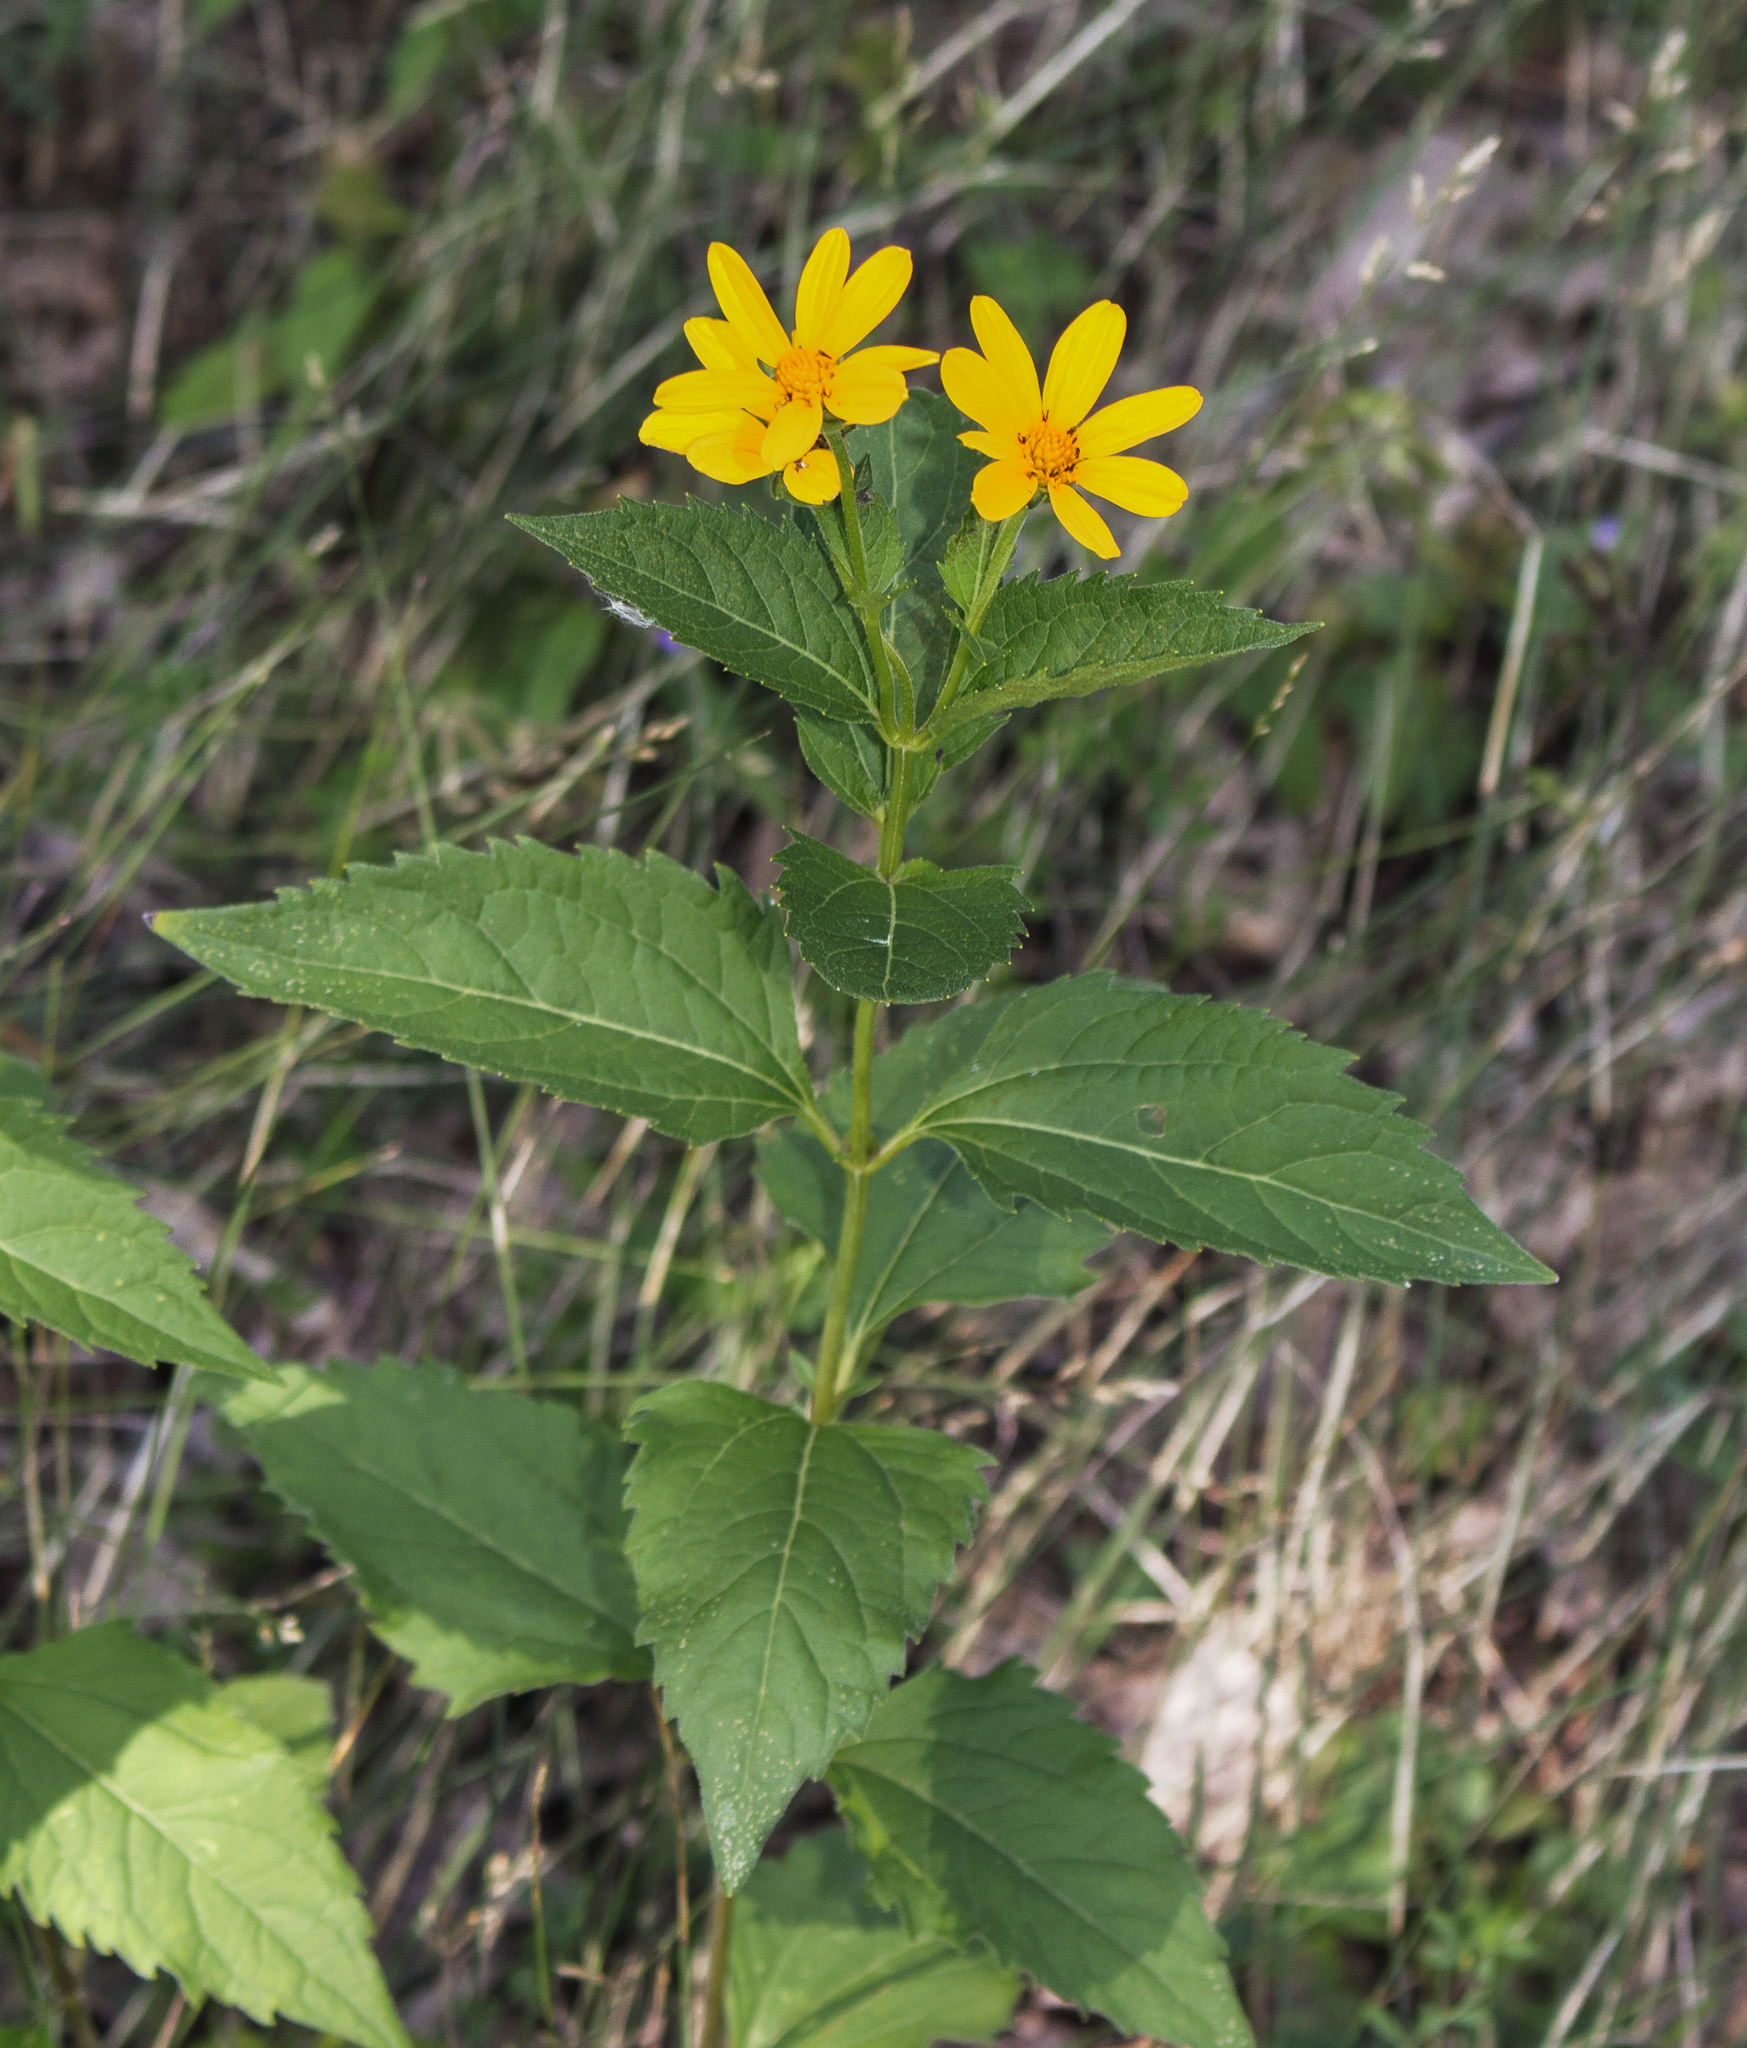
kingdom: Plantae
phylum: Tracheophyta
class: Magnoliopsida
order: Asterales
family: Asteraceae
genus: Heliopsis
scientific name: Heliopsis helianthoides
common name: False sunflower
